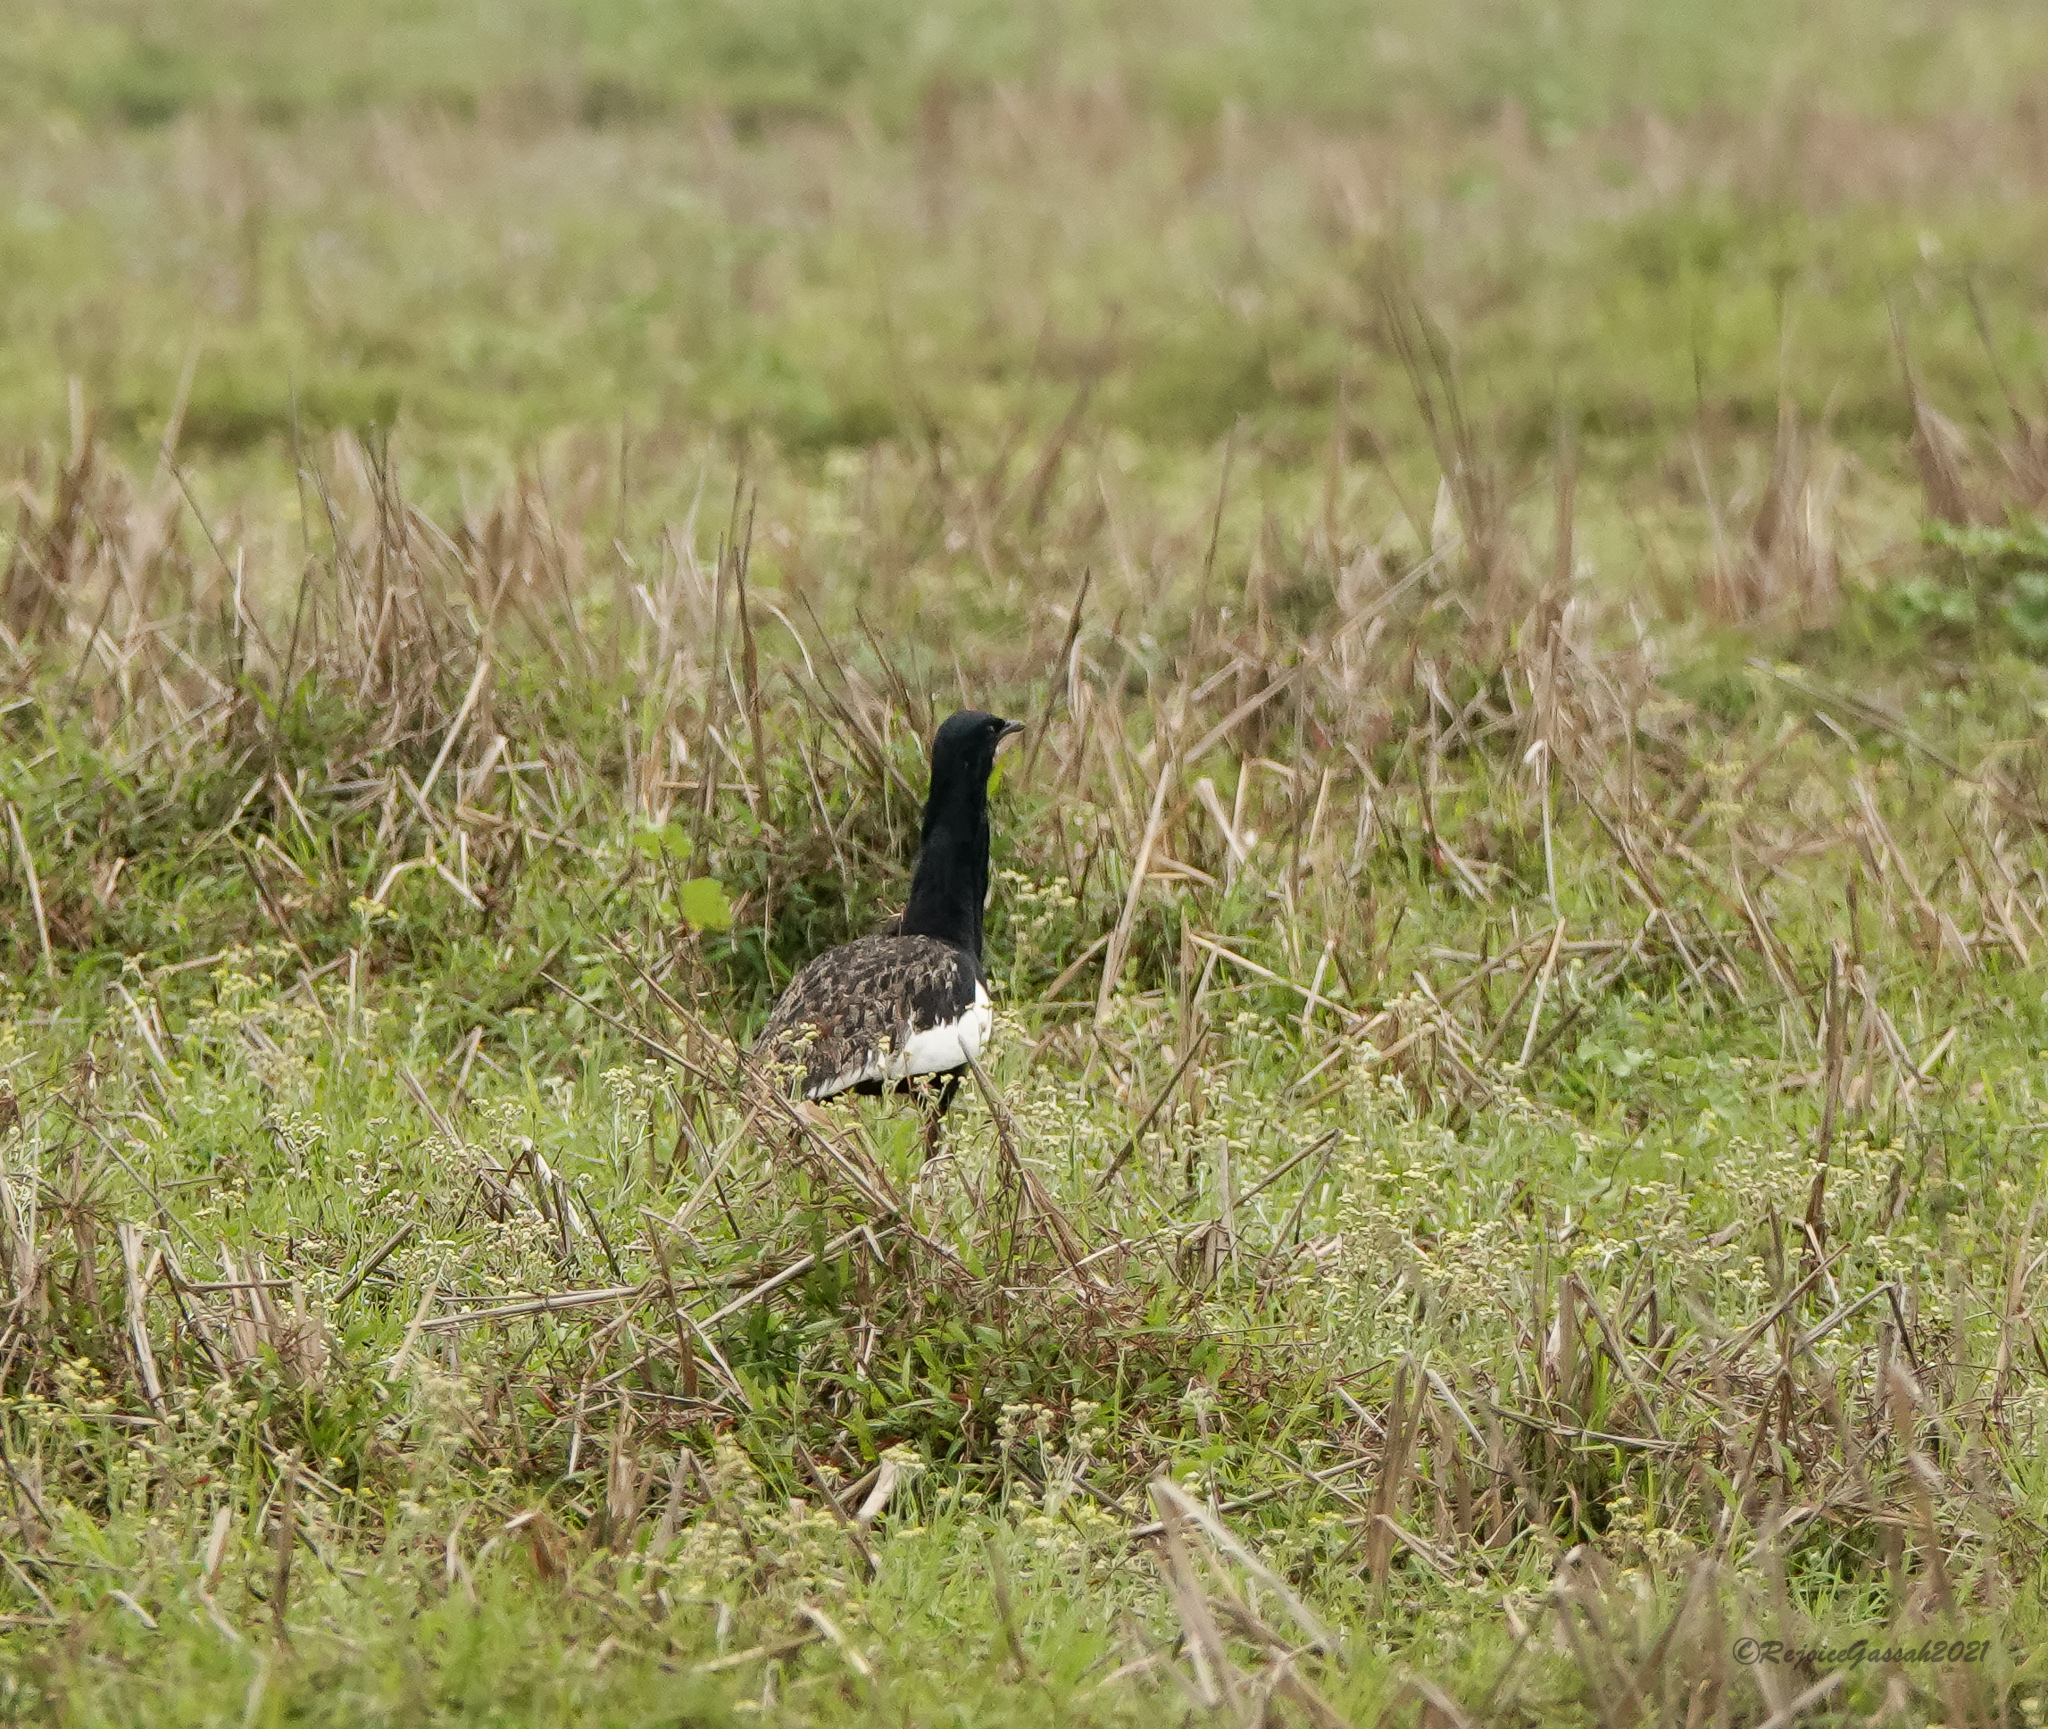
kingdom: Animalia
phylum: Chordata
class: Aves
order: Otidiformes
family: Otididae
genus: Houbaropsis
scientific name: Houbaropsis bengalensis
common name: Bengal florican
